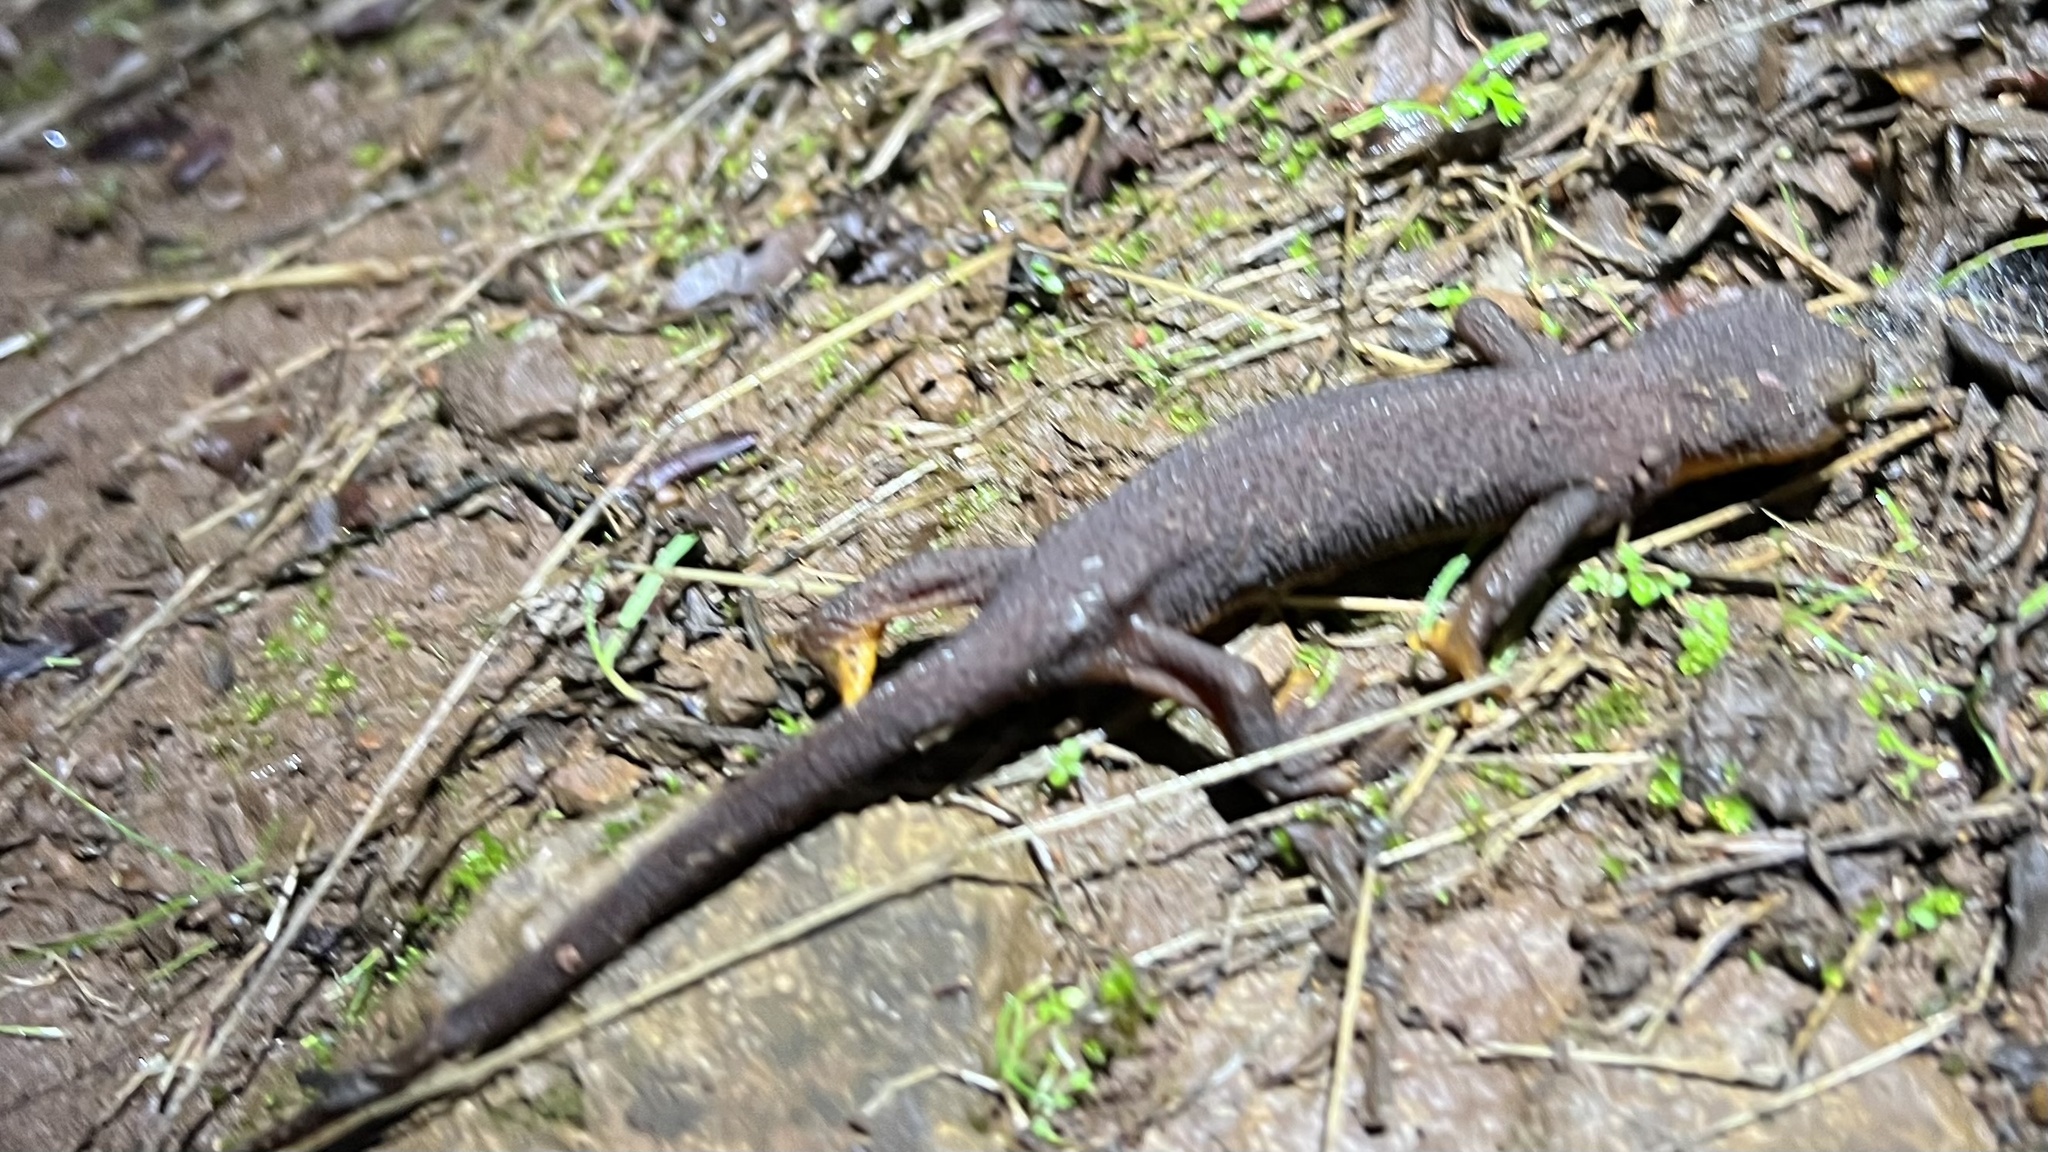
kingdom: Animalia
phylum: Chordata
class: Amphibia
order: Caudata
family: Salamandridae
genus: Taricha
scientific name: Taricha torosa
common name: California newt
